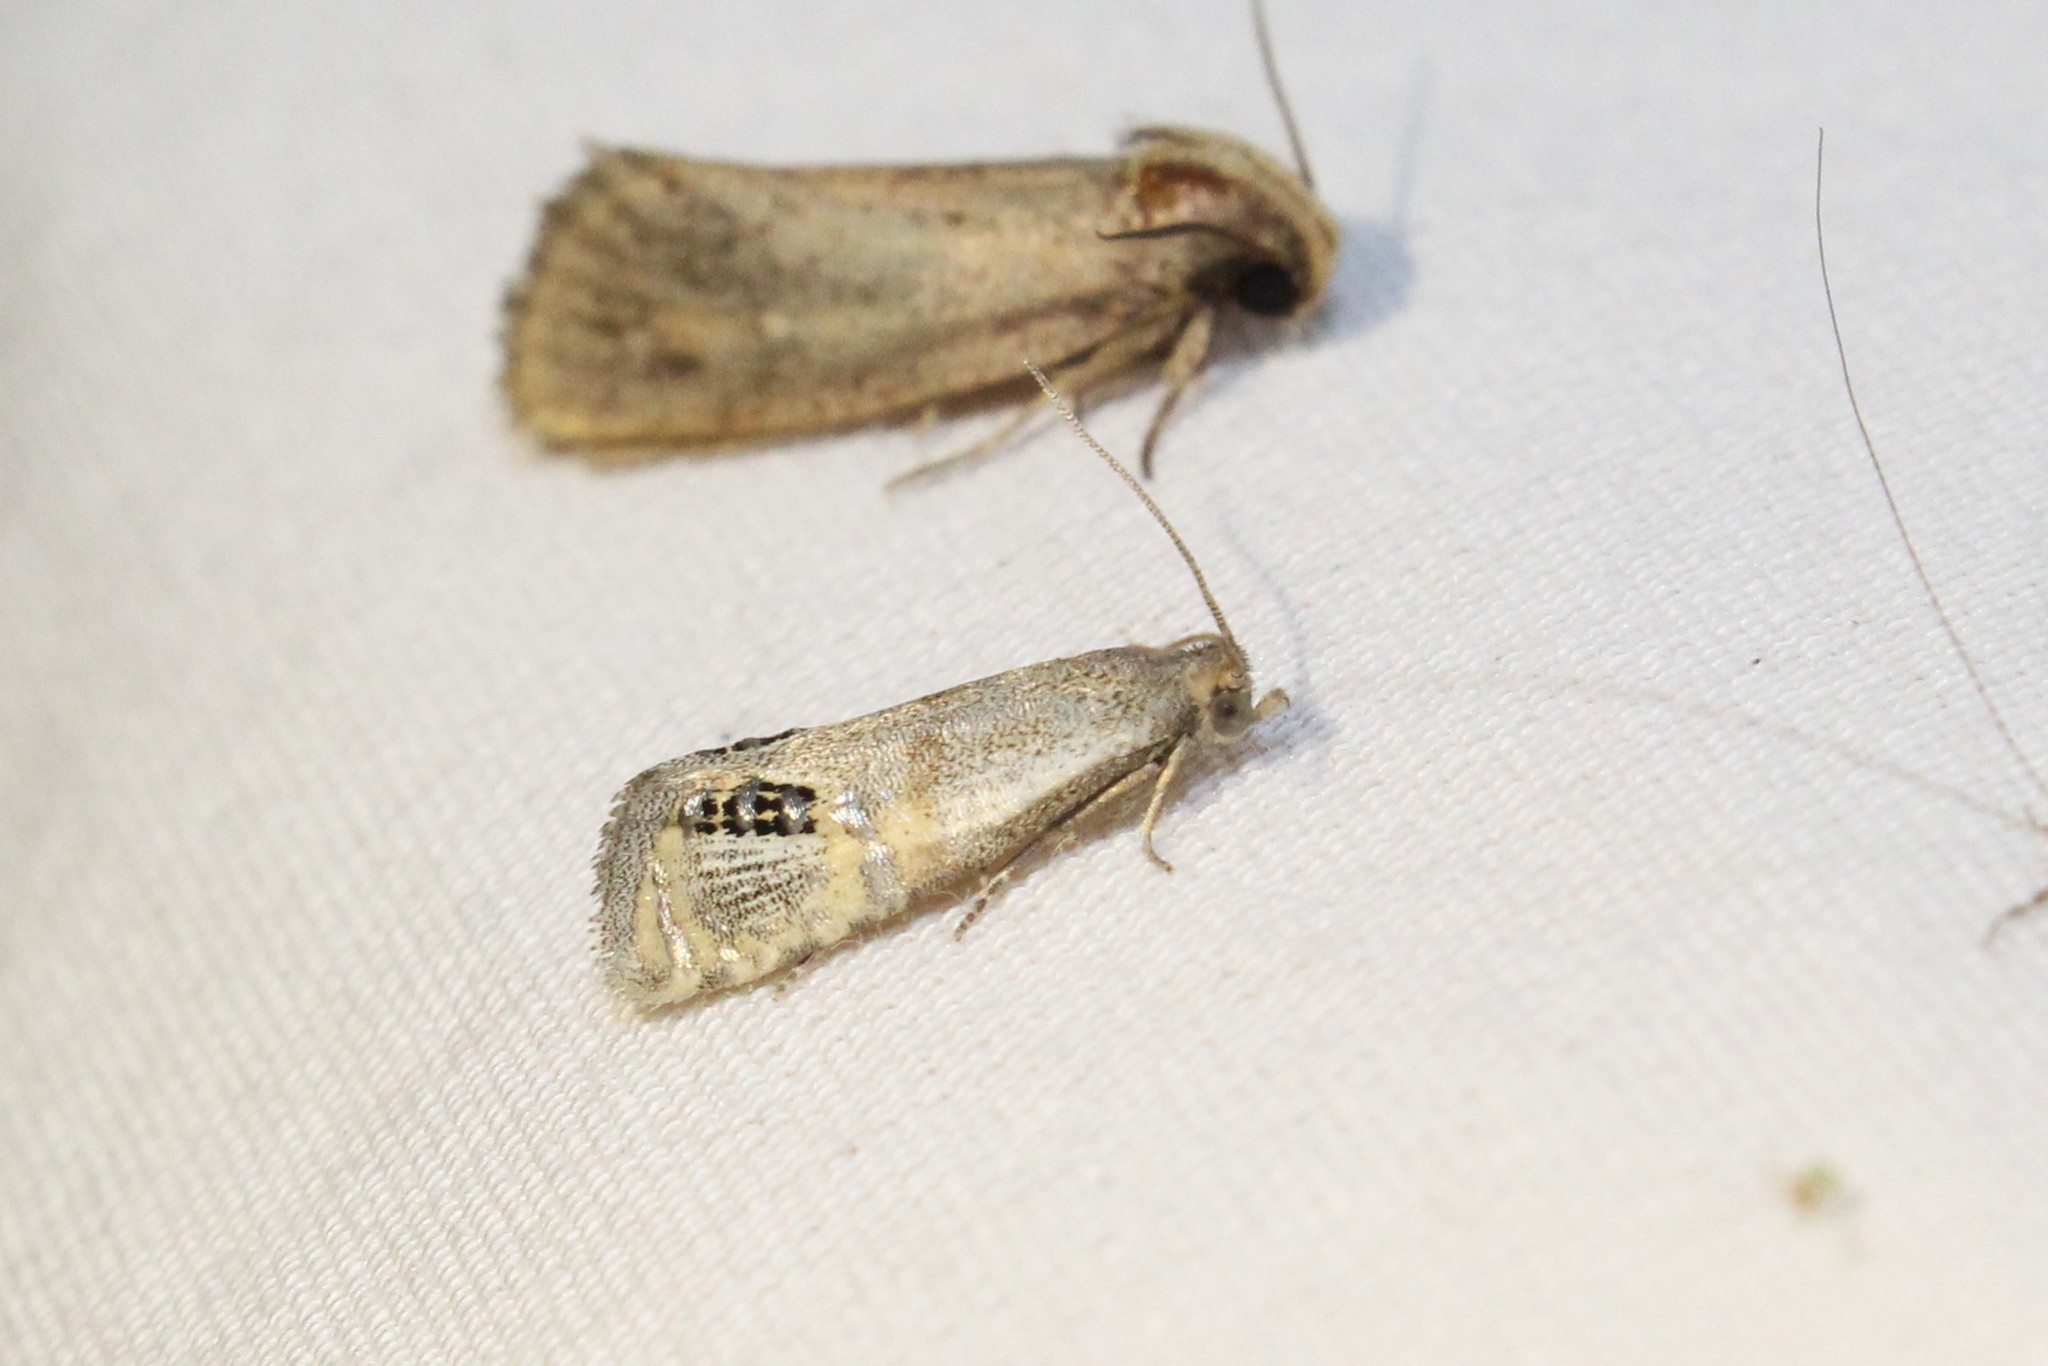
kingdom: Animalia
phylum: Arthropoda
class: Insecta
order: Lepidoptera
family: Tortricidae
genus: Pelochrista
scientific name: Pelochrista scintillana
